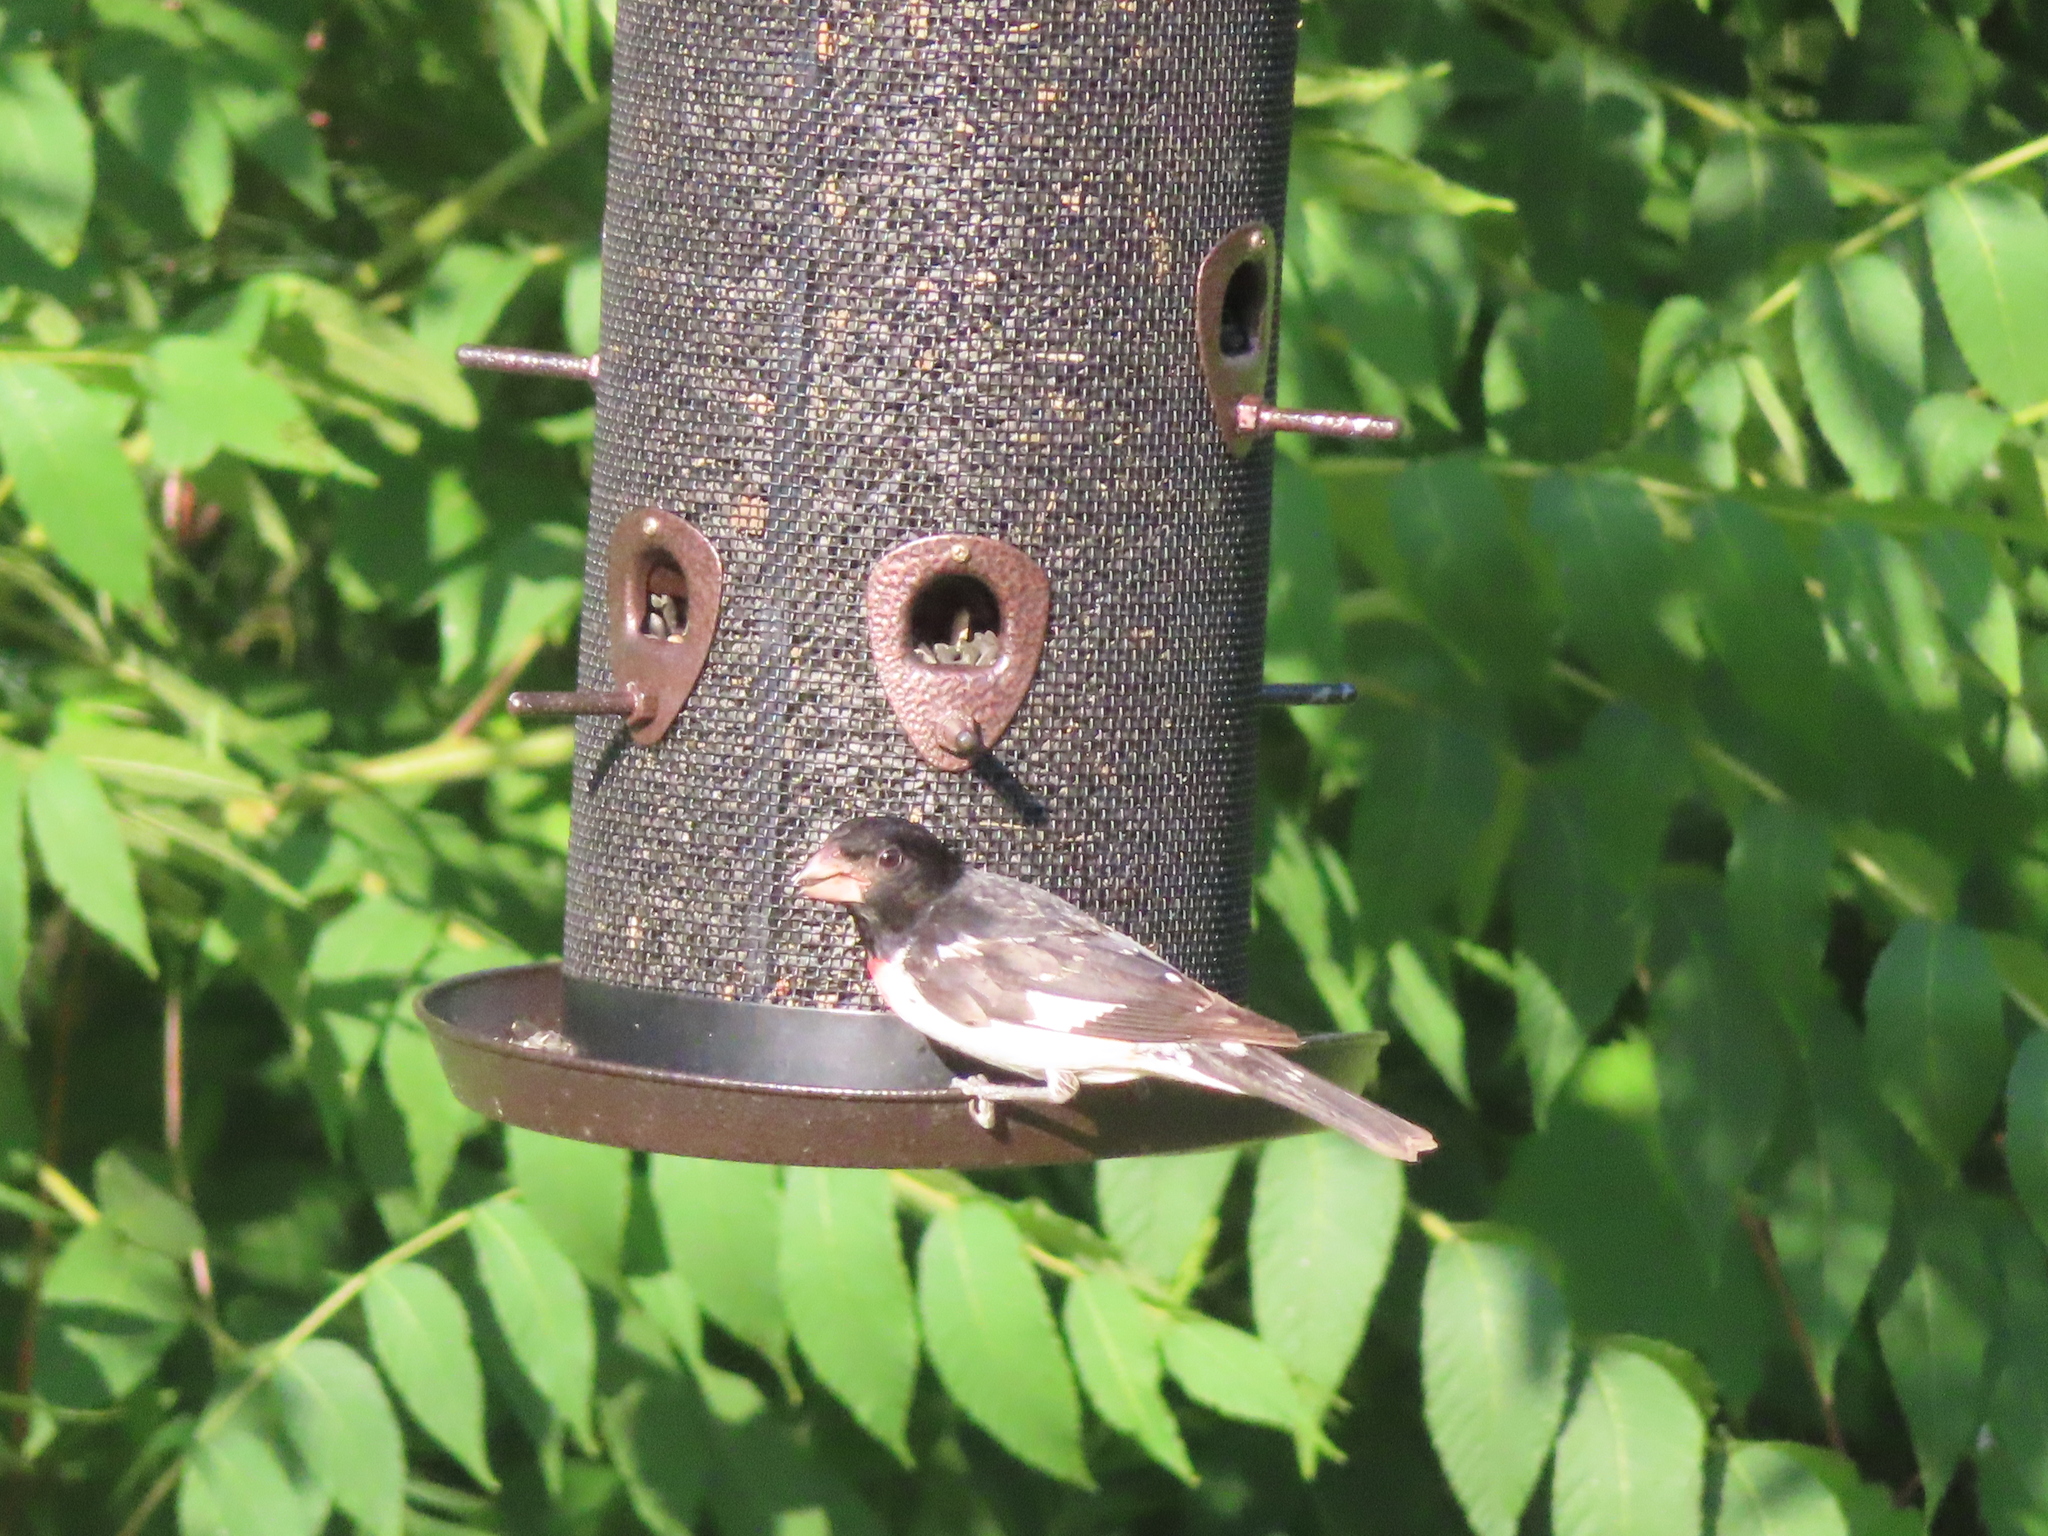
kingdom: Animalia
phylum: Chordata
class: Aves
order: Passeriformes
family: Cardinalidae
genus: Pheucticus
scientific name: Pheucticus ludovicianus
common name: Rose-breasted grosbeak
